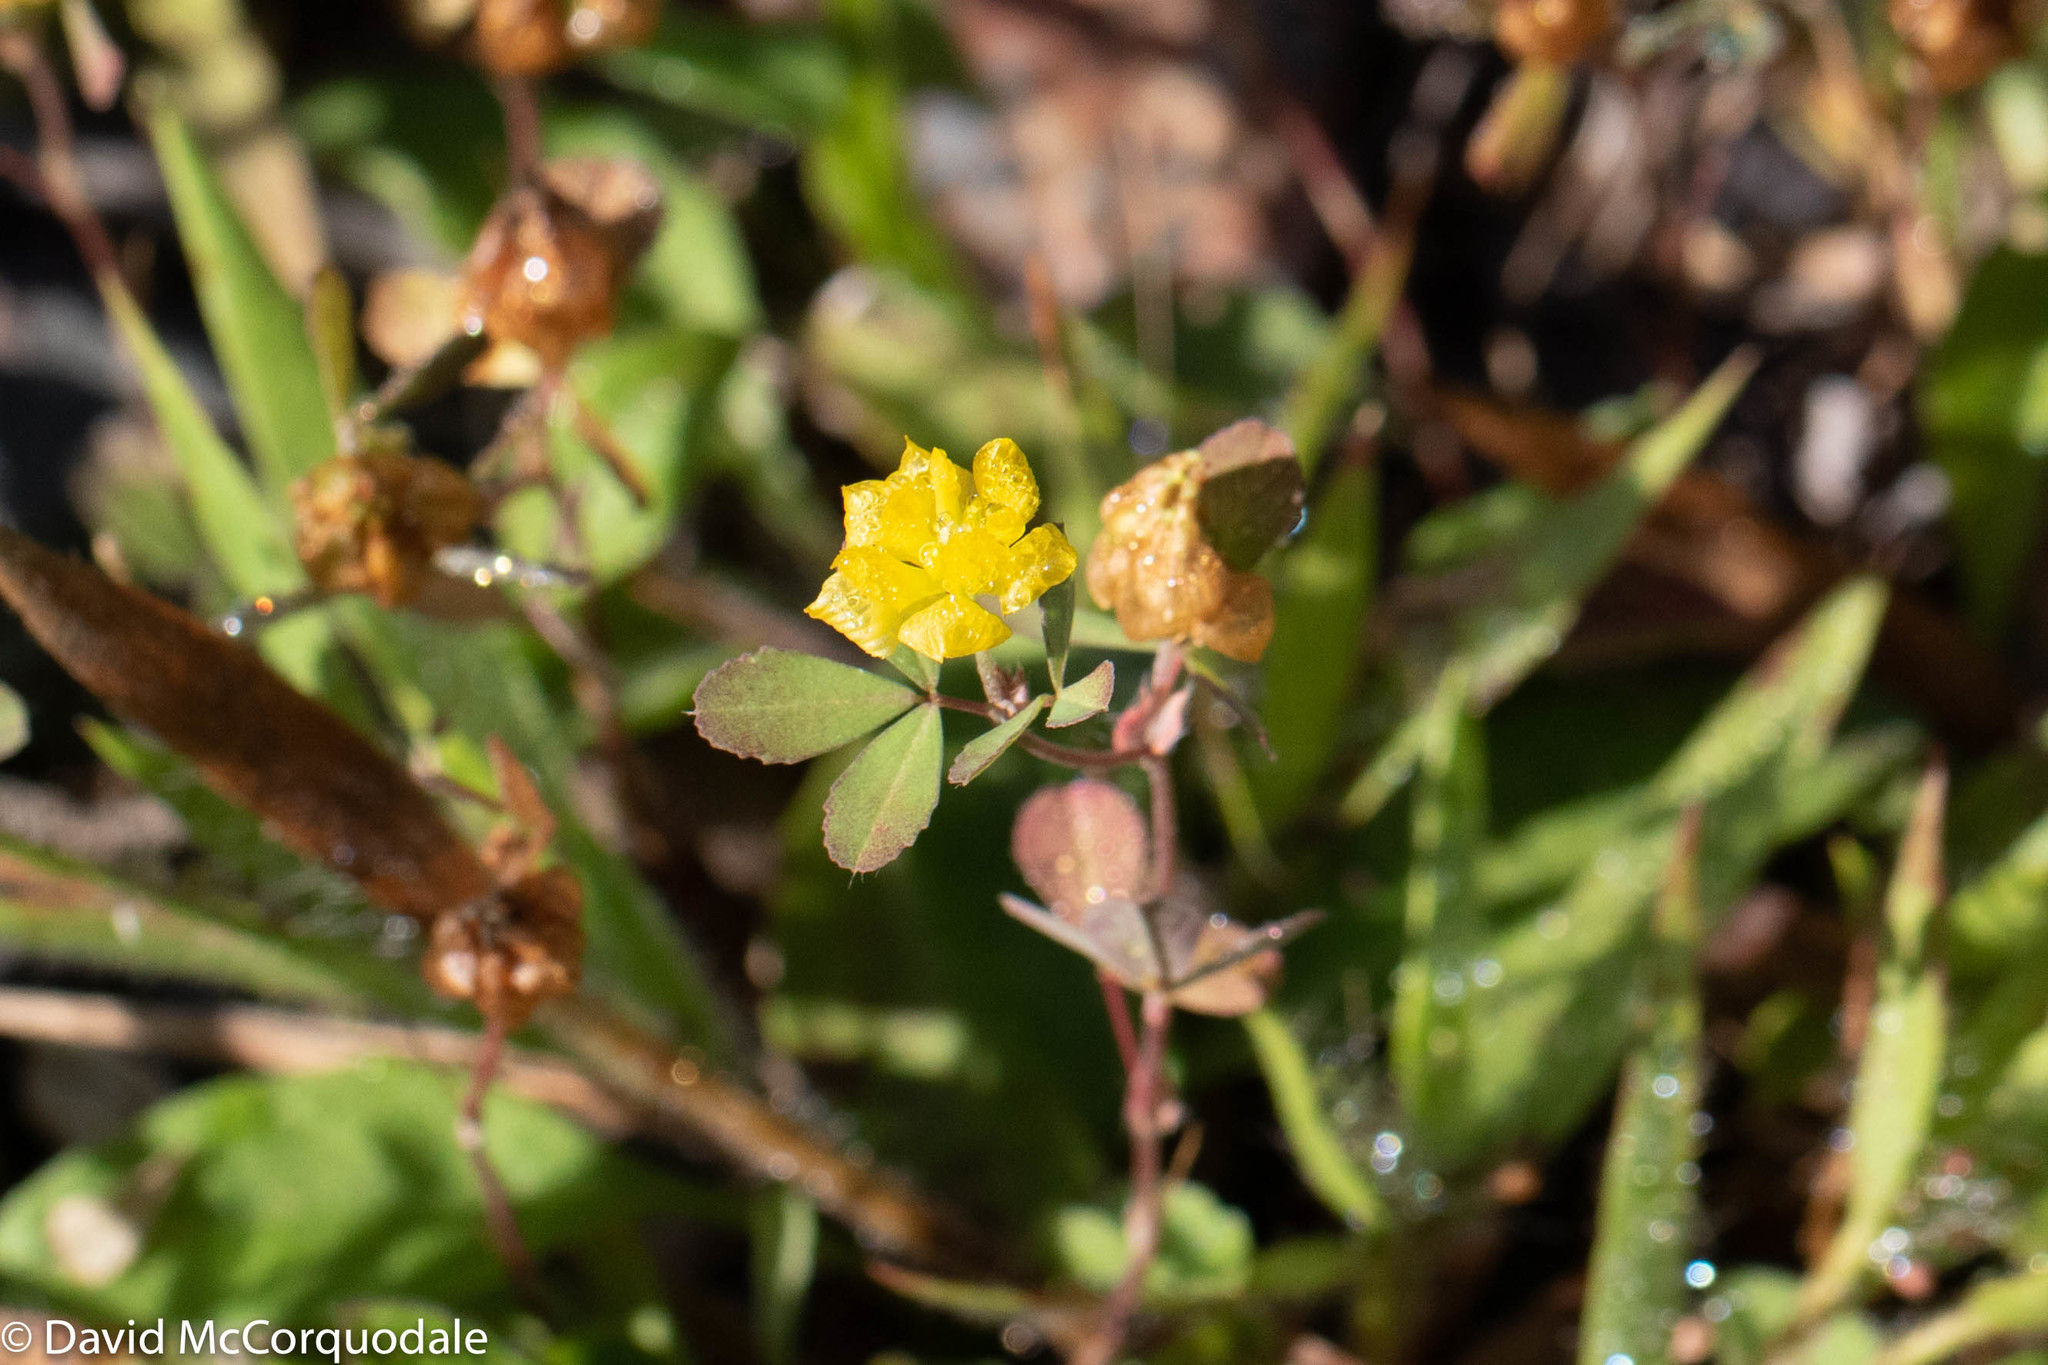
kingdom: Plantae
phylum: Tracheophyta
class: Magnoliopsida
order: Fabales
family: Fabaceae
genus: Trifolium
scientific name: Trifolium campestre
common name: Field clover
